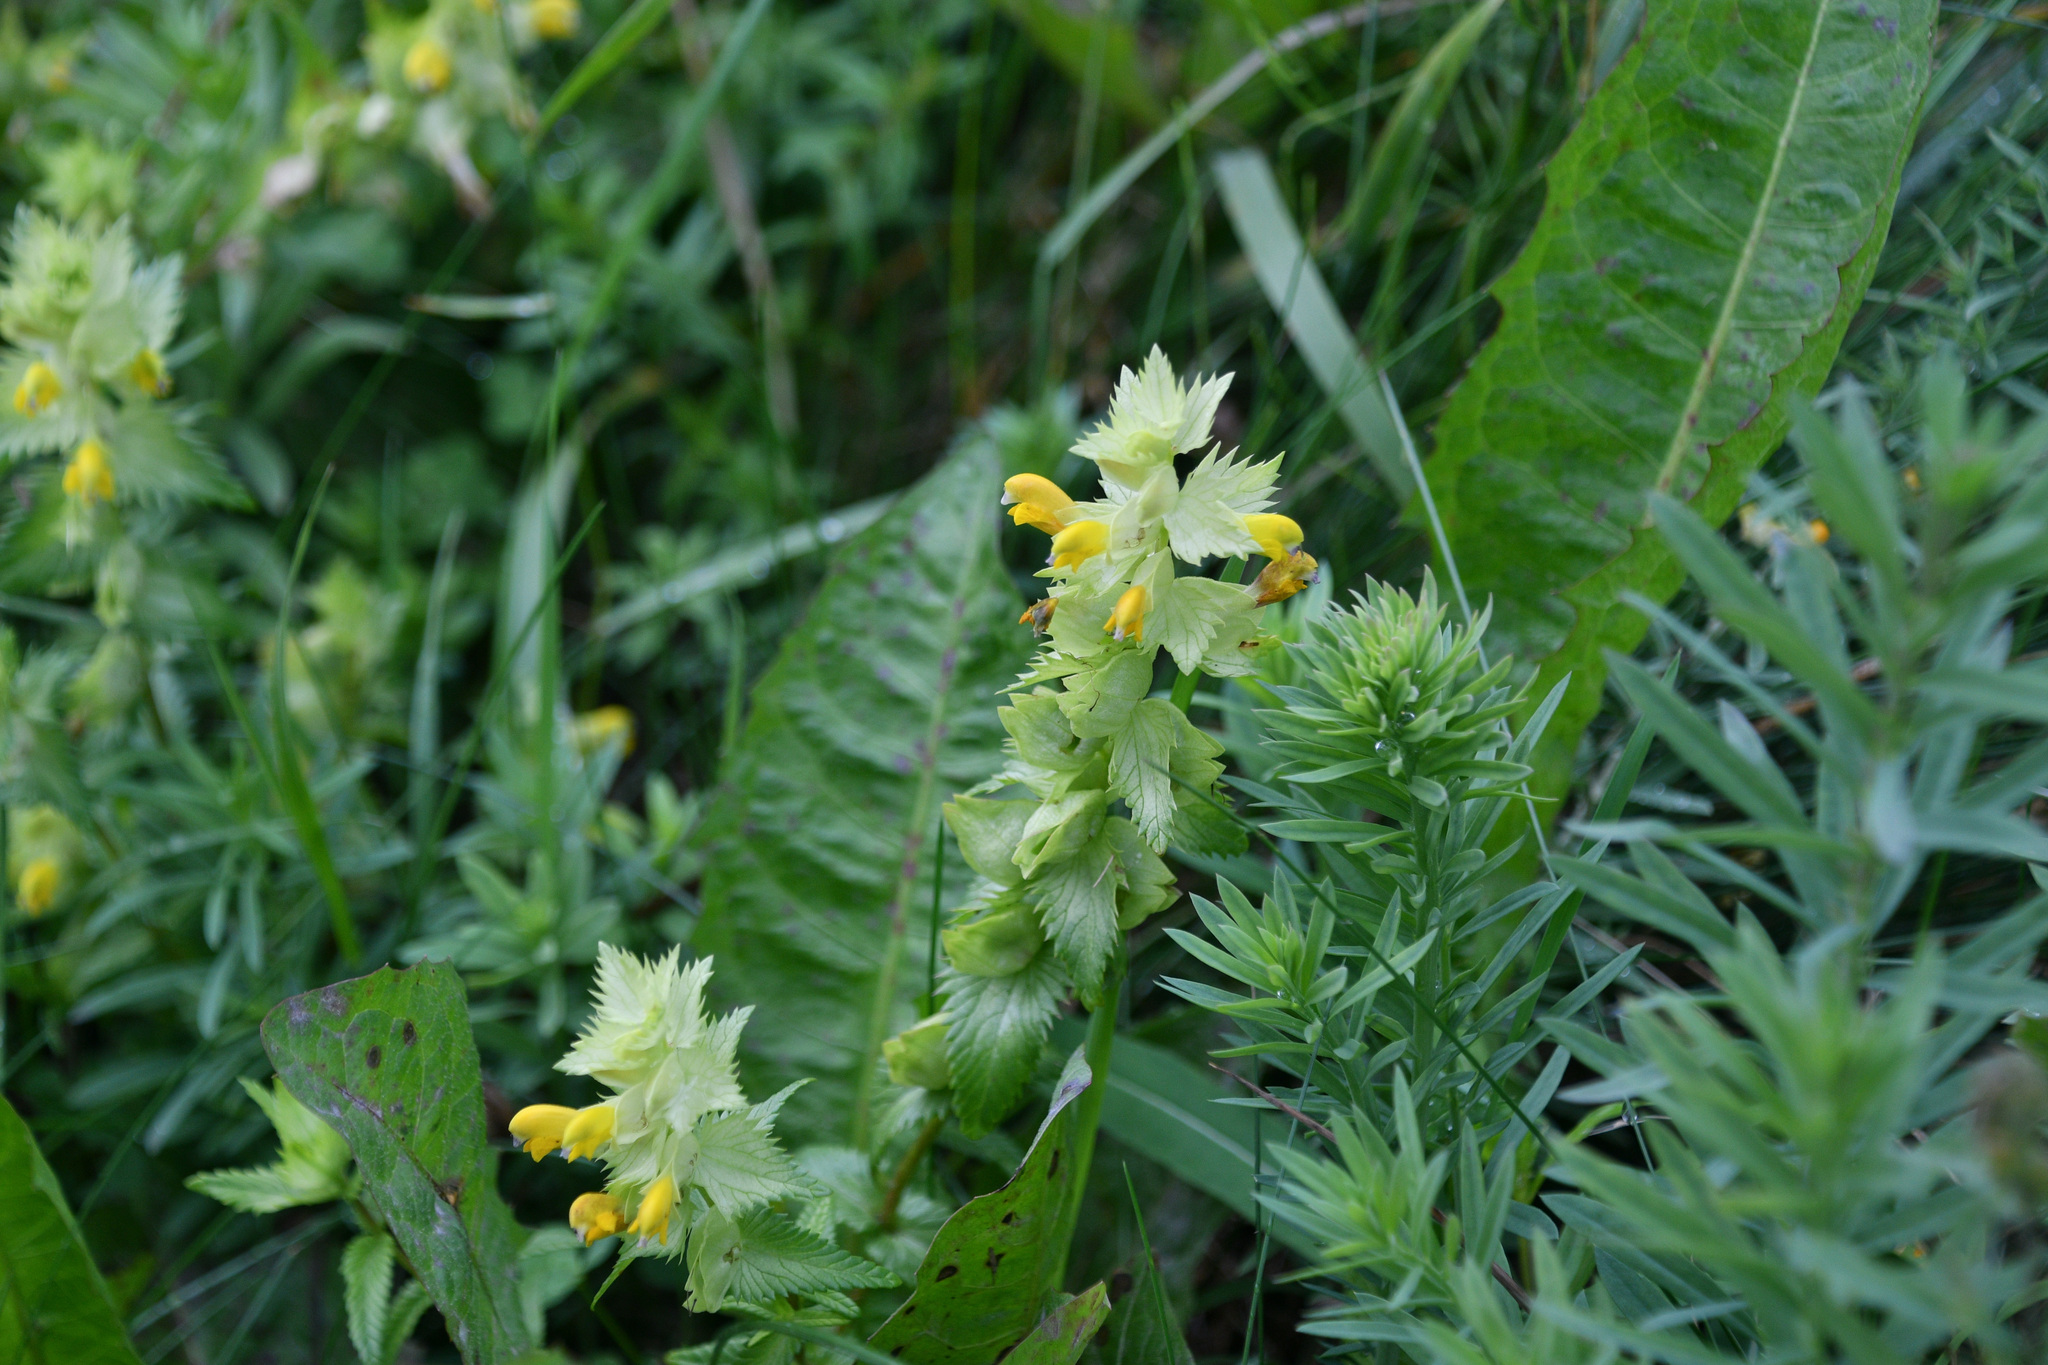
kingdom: Plantae
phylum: Tracheophyta
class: Magnoliopsida
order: Lamiales
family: Orobanchaceae
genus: Rhinanthus
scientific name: Rhinanthus minor
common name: Yellow-rattle
